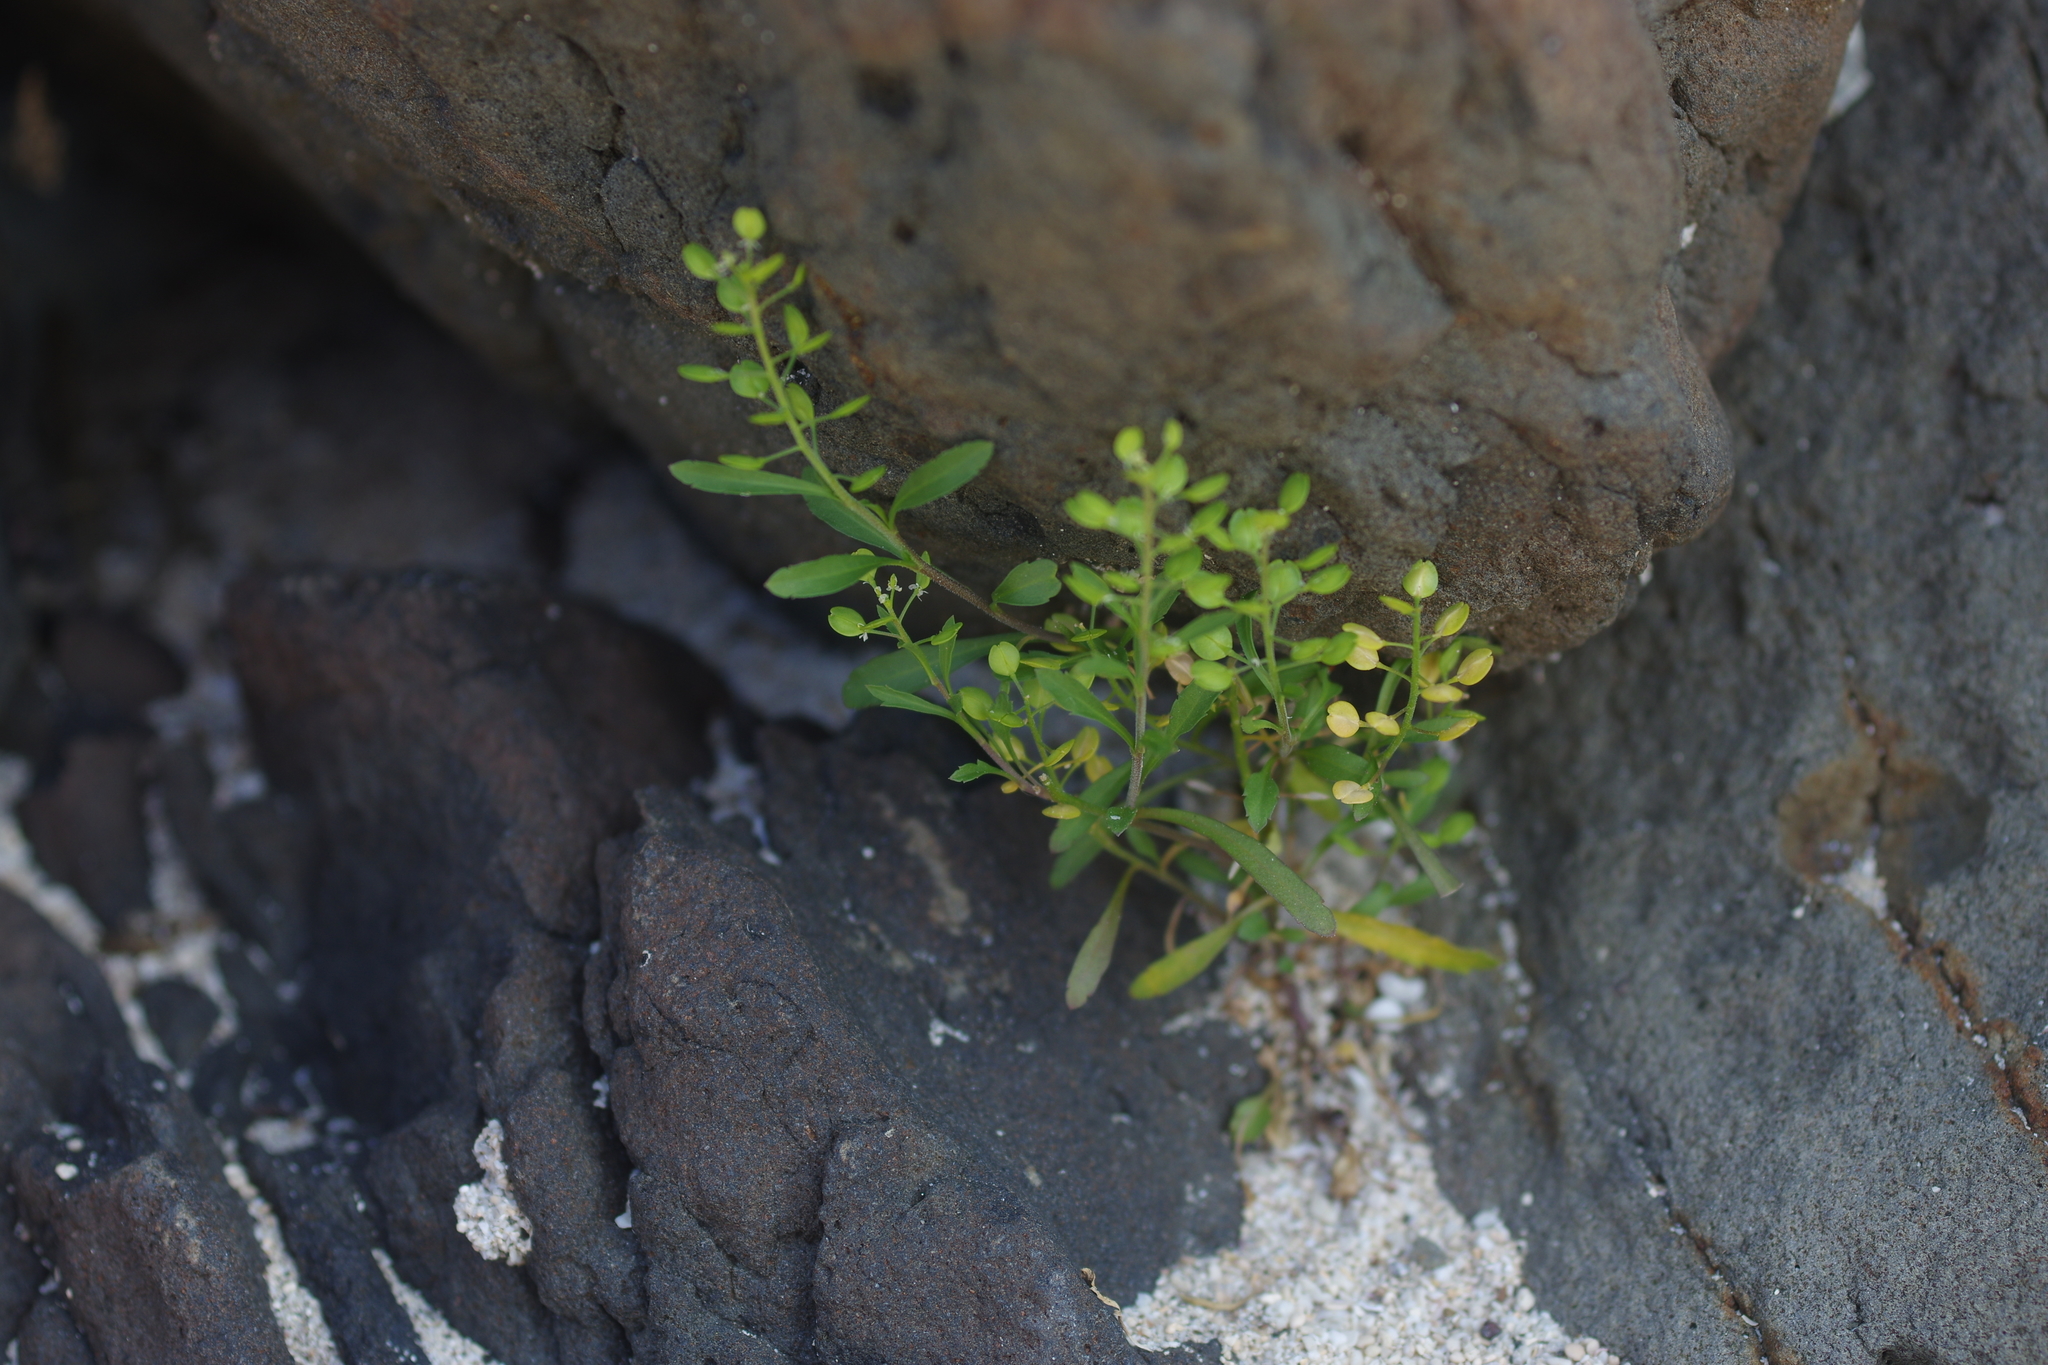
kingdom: Plantae
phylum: Tracheophyta
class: Magnoliopsida
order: Brassicales
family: Brassicaceae
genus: Lepidium
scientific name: Lepidium virginicum
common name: Least pepperwort
